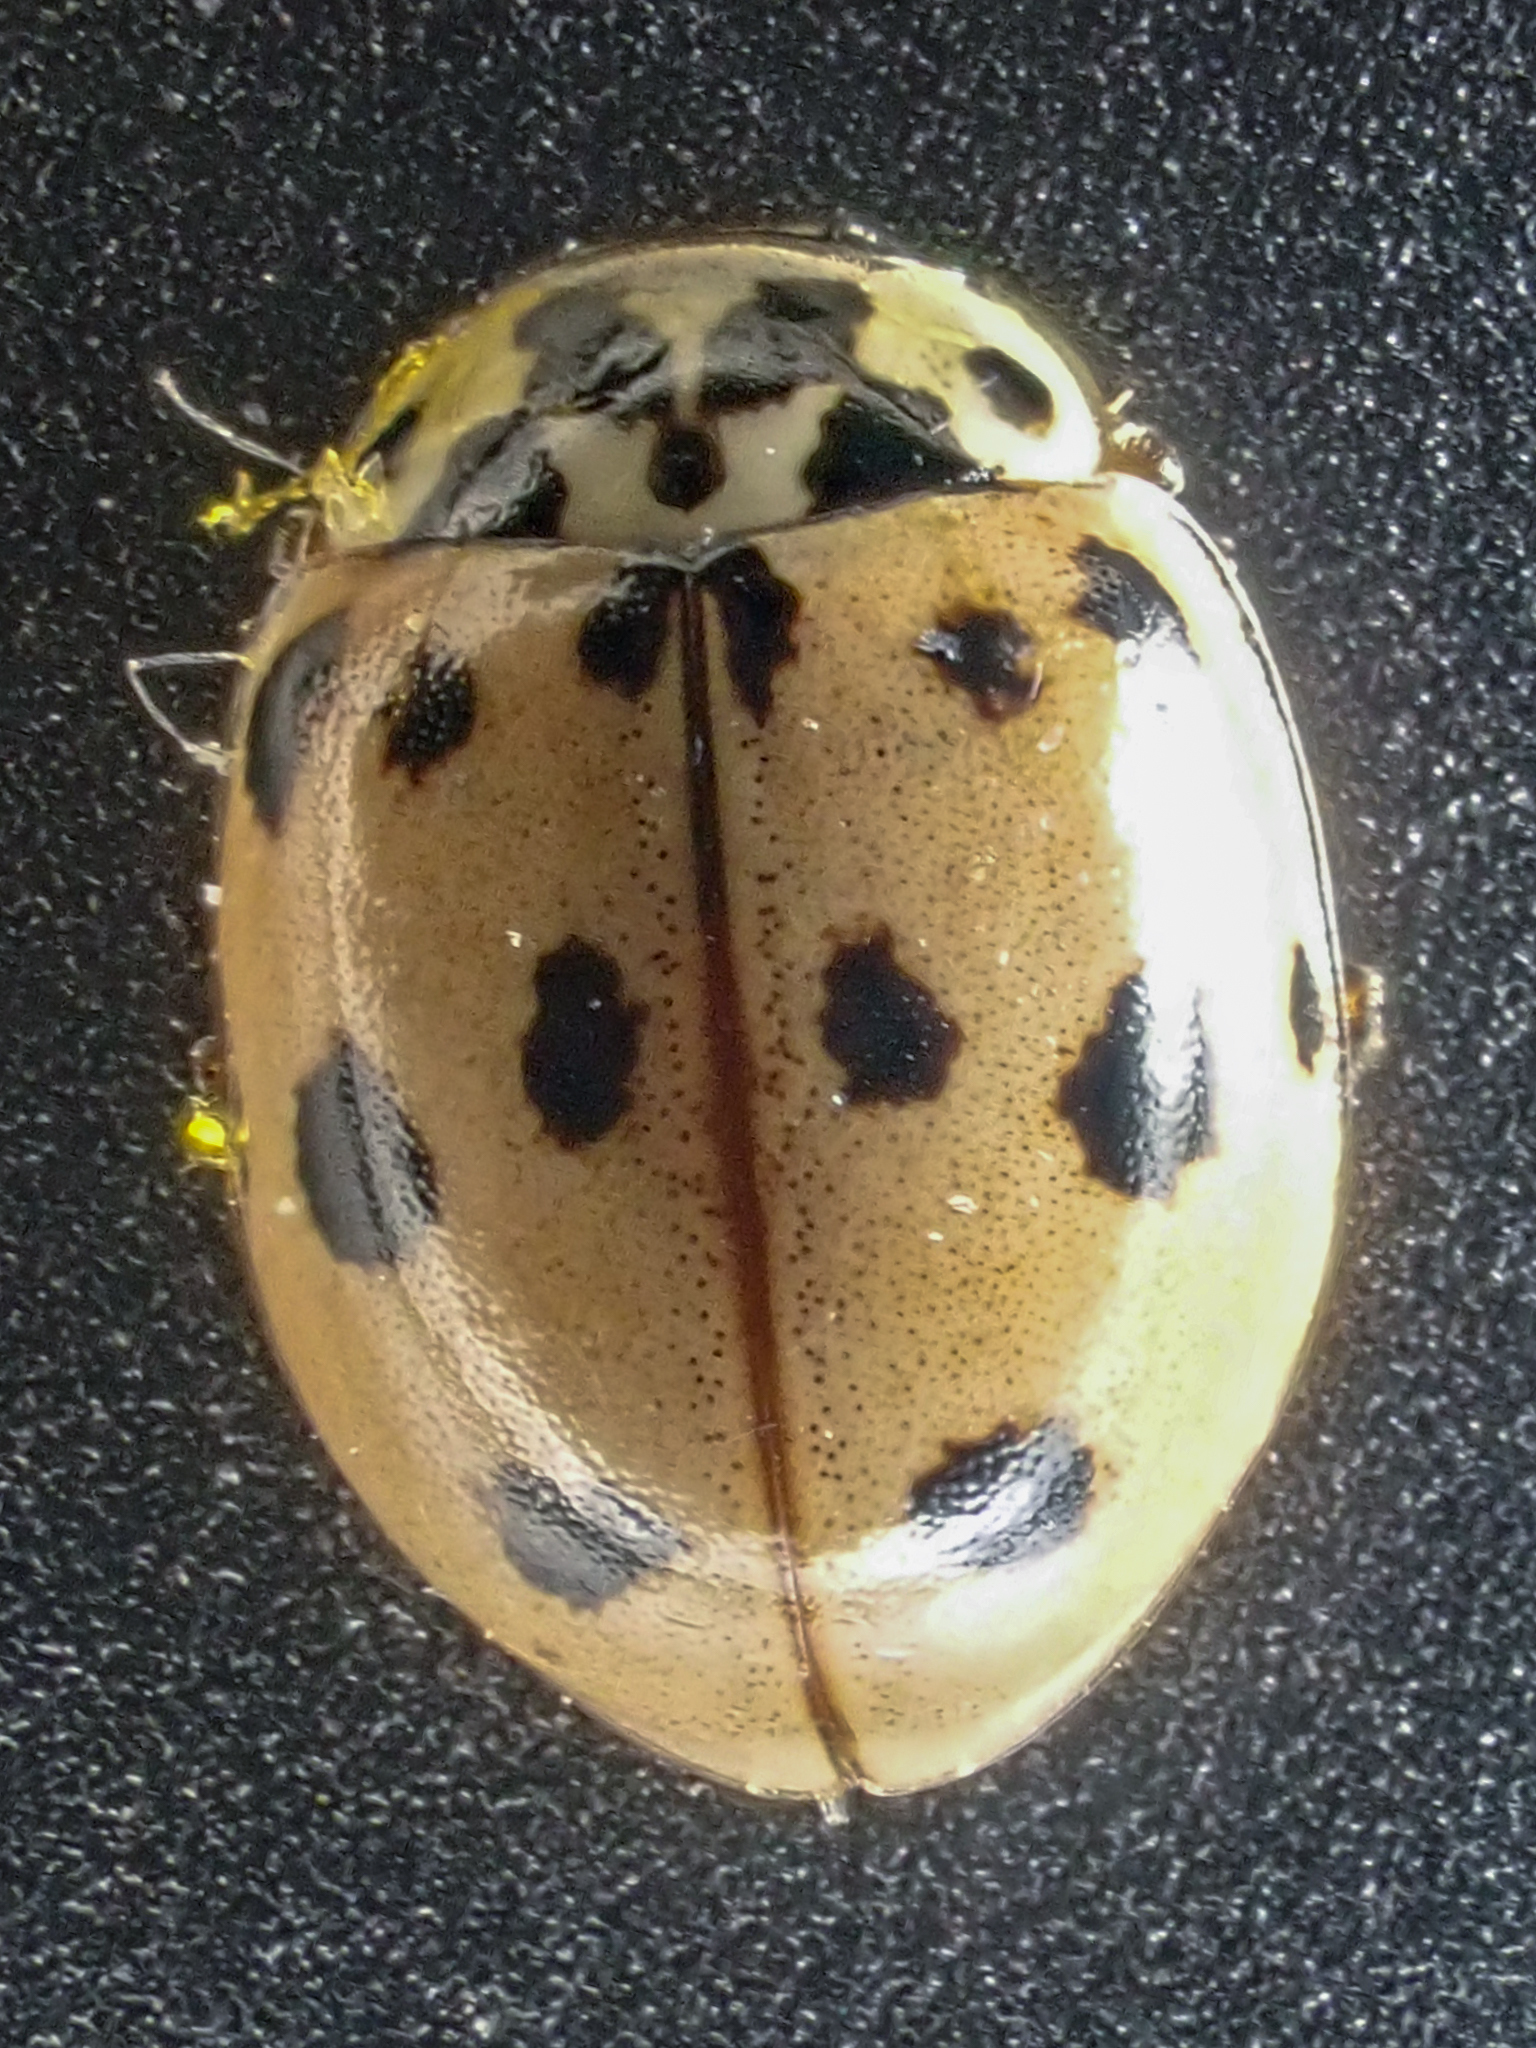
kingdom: Animalia
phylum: Arthropoda
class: Insecta
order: Coleoptera
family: Coccinellidae
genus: Olla
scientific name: Olla v-nigrum
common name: Ashy gray lady beetle
